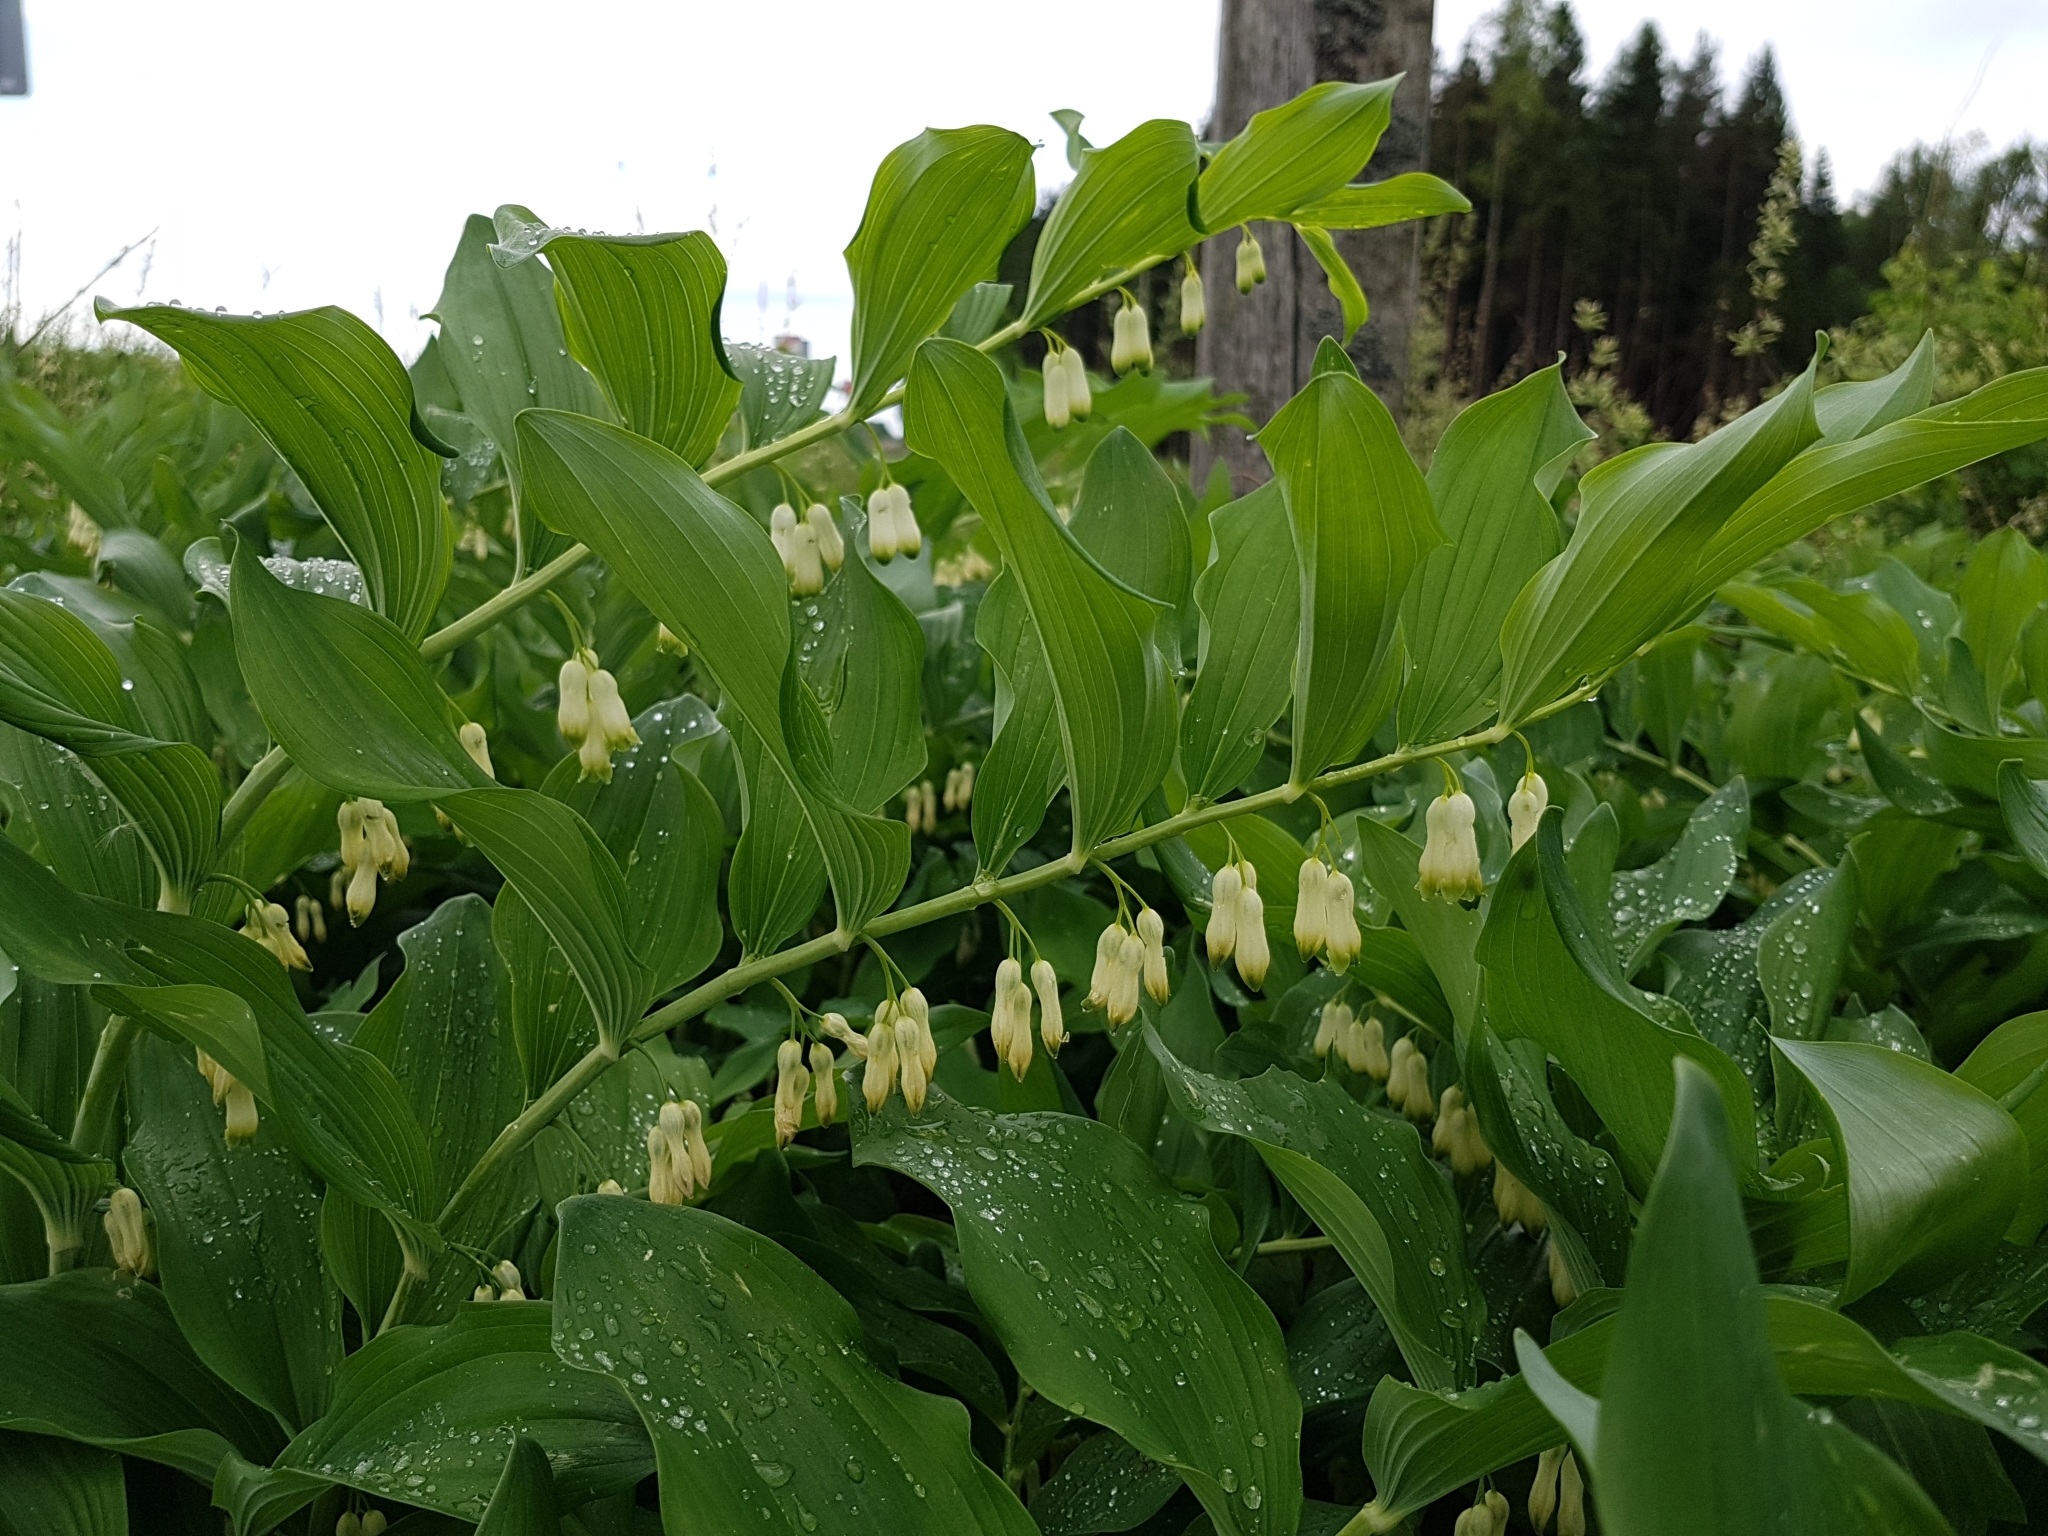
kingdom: Plantae
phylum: Tracheophyta
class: Liliopsida
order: Asparagales
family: Asparagaceae
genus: Polygonatum
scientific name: Polygonatum multiflorum
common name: Solomon's-seal
